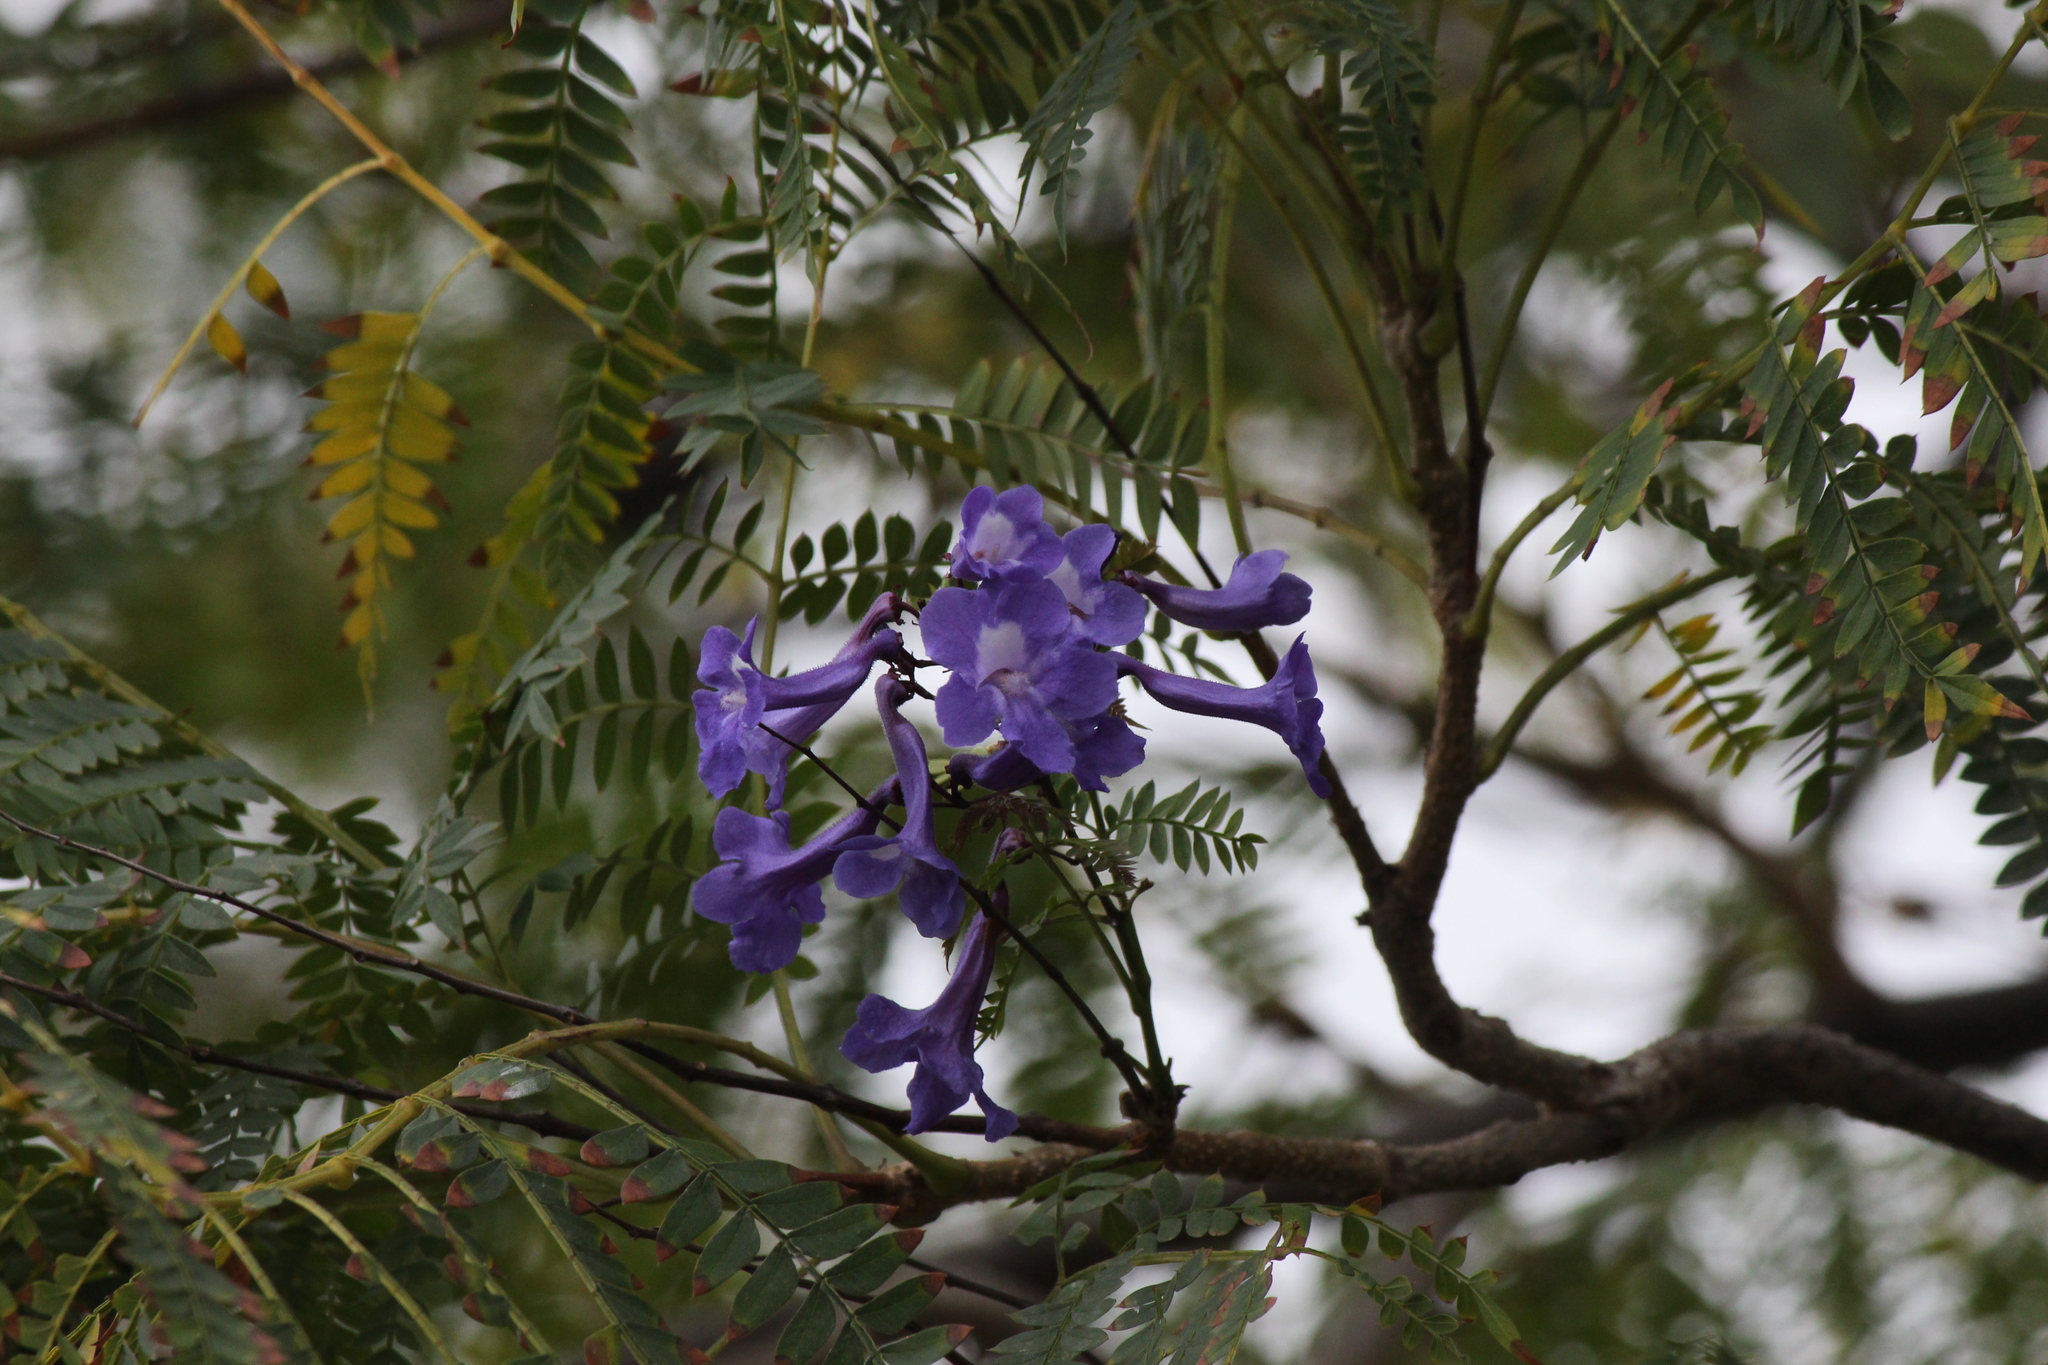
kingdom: Plantae
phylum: Tracheophyta
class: Magnoliopsida
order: Lamiales
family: Bignoniaceae
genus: Jacaranda
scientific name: Jacaranda mimosifolia
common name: Black poui
